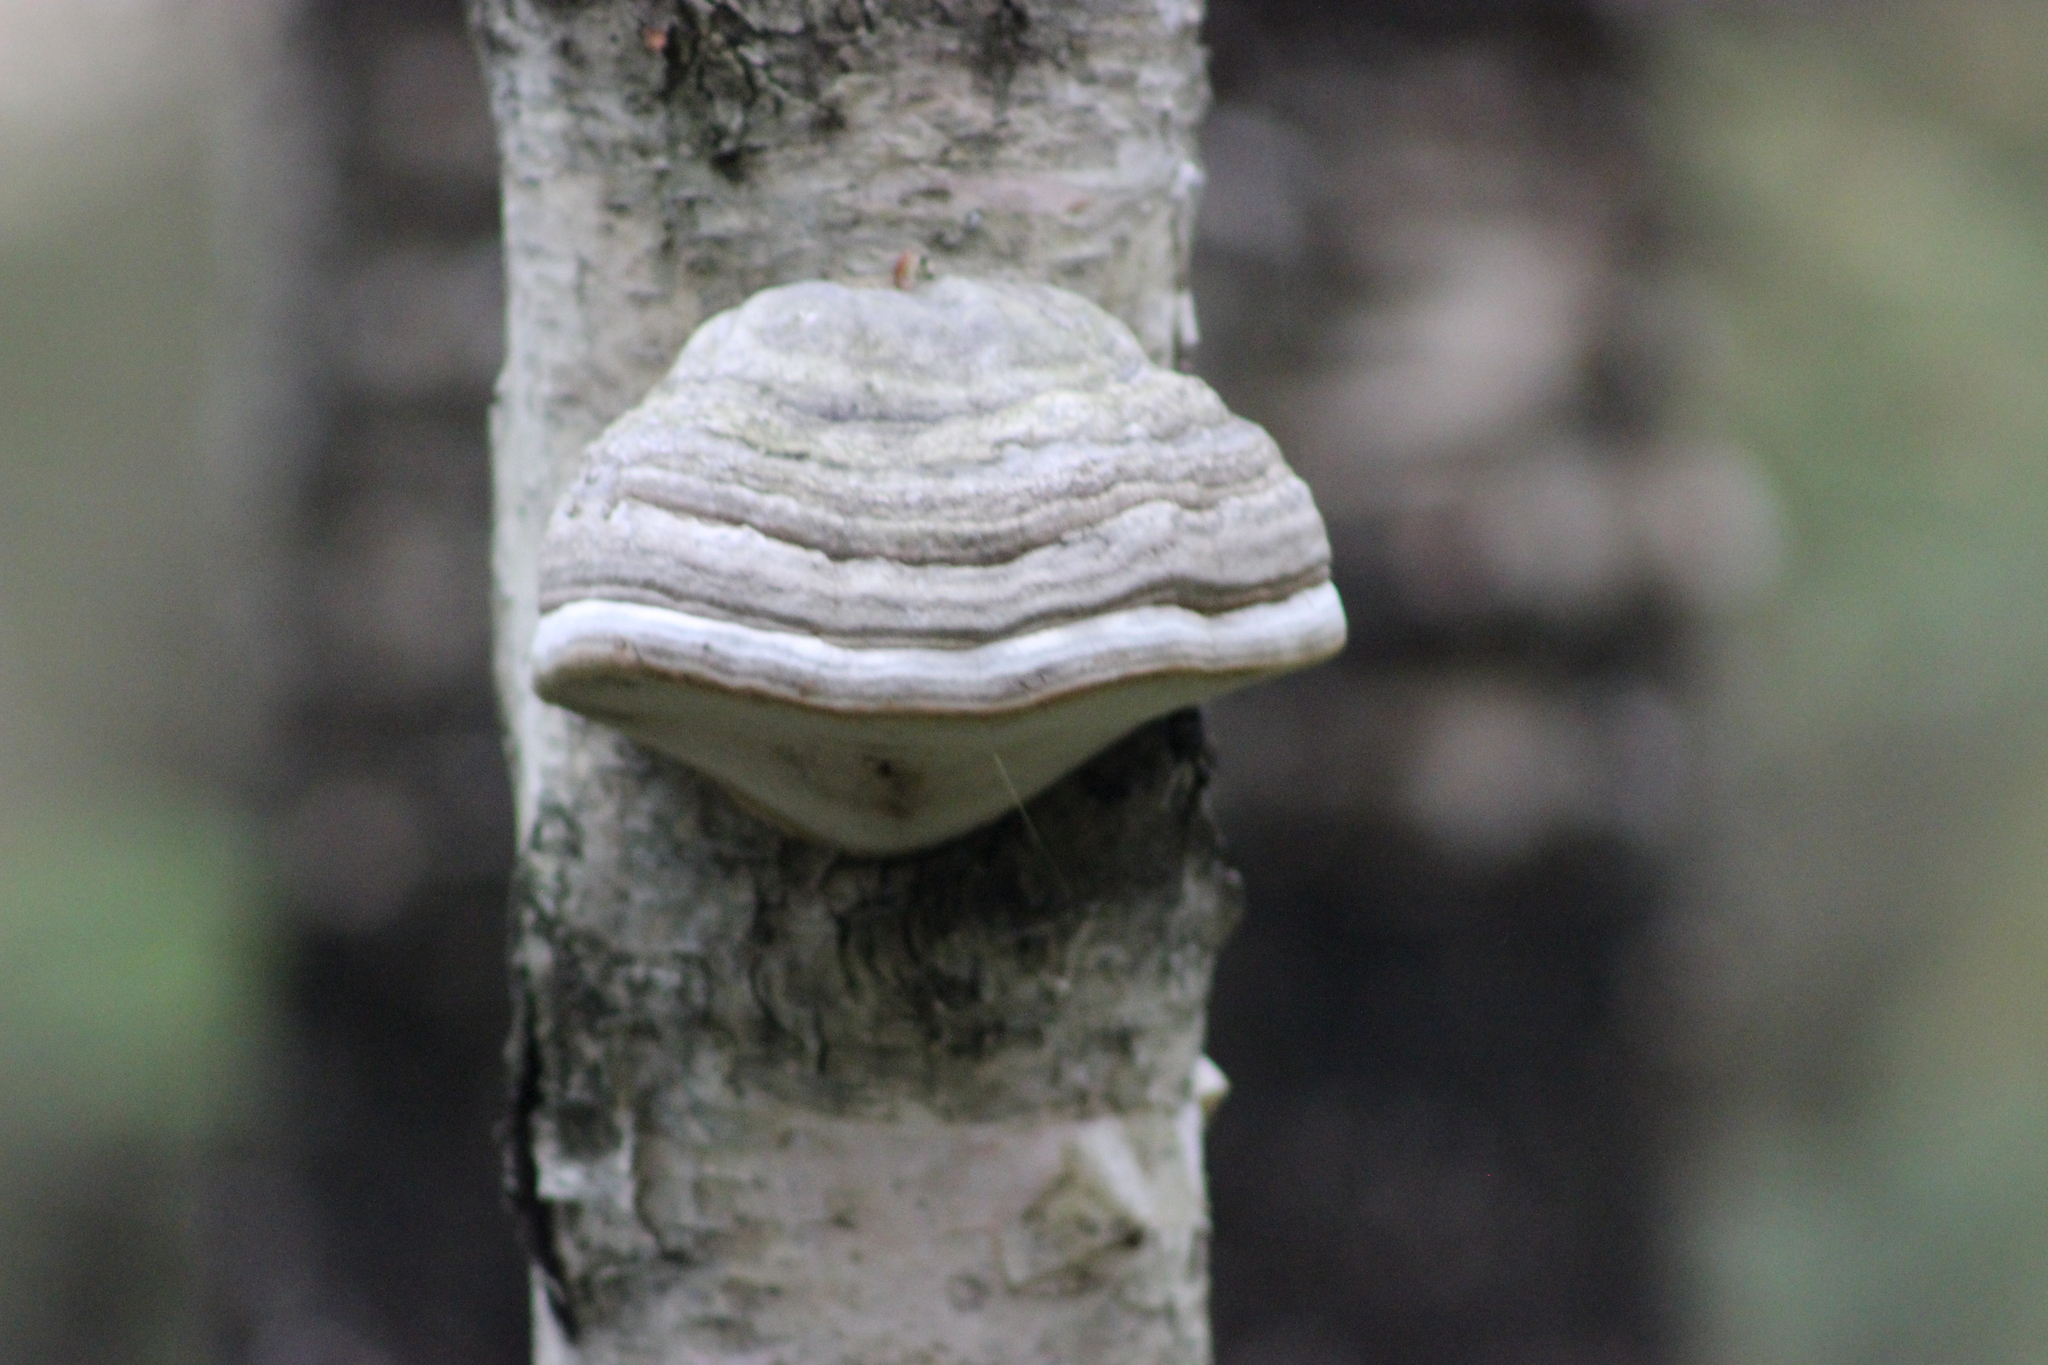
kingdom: Fungi
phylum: Basidiomycota
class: Agaricomycetes
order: Polyporales
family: Polyporaceae
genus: Fomes
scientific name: Fomes fomentarius
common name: Hoof fungus
